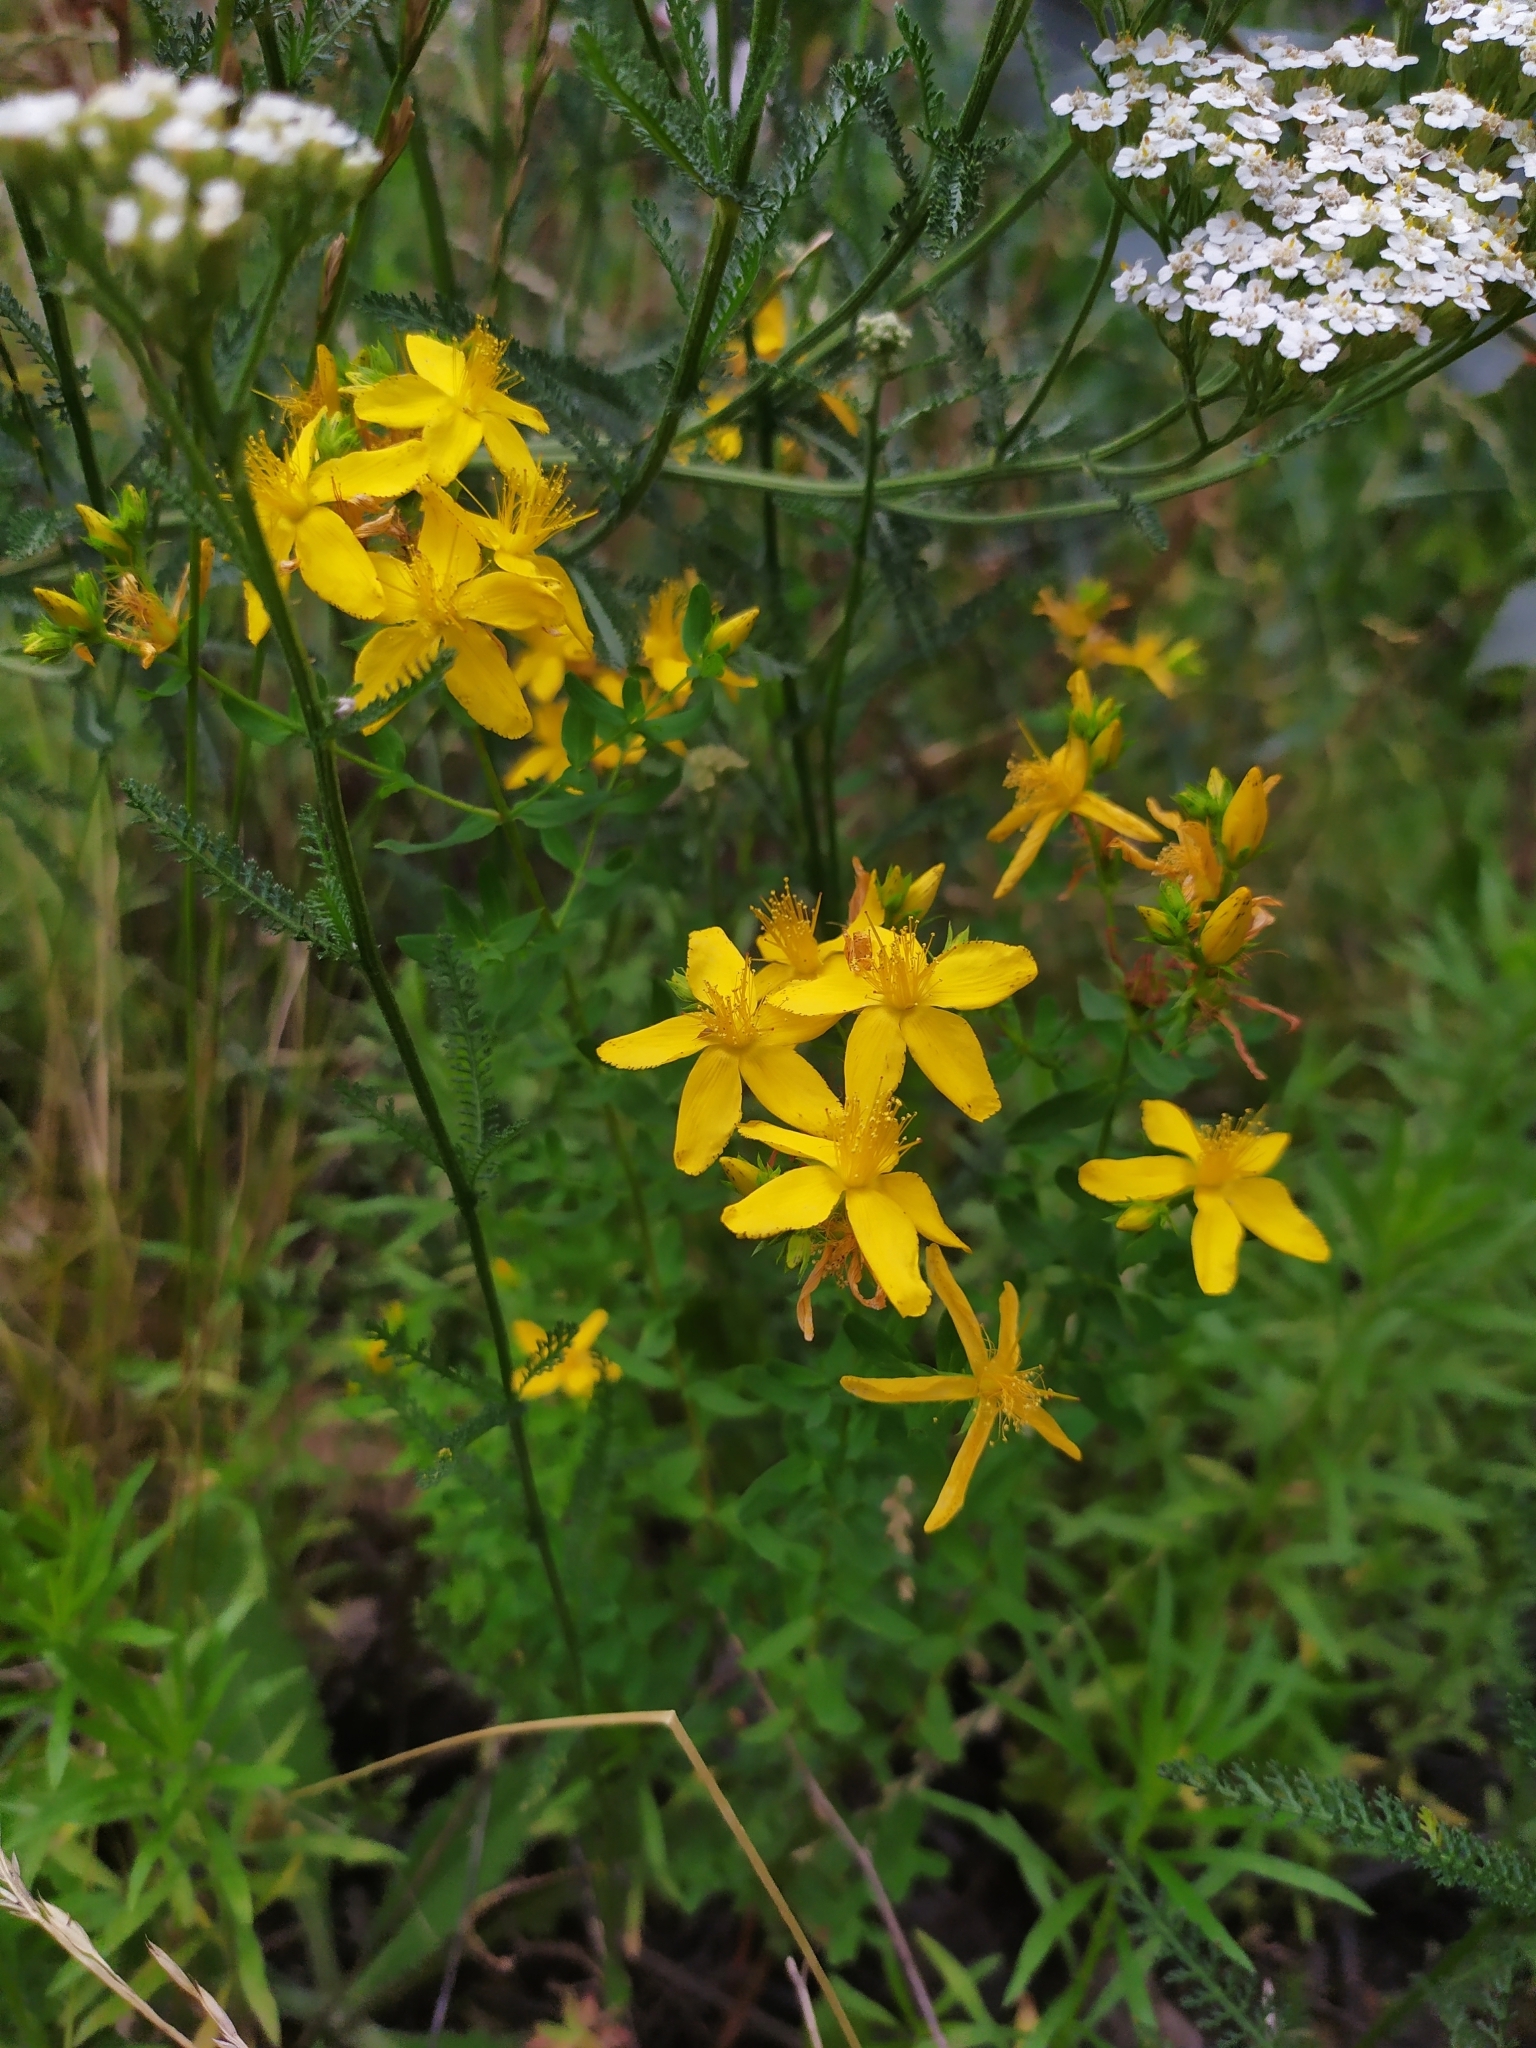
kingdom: Plantae
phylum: Tracheophyta
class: Magnoliopsida
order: Malpighiales
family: Hypericaceae
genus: Hypericum
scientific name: Hypericum perforatum
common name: Common st. johnswort
